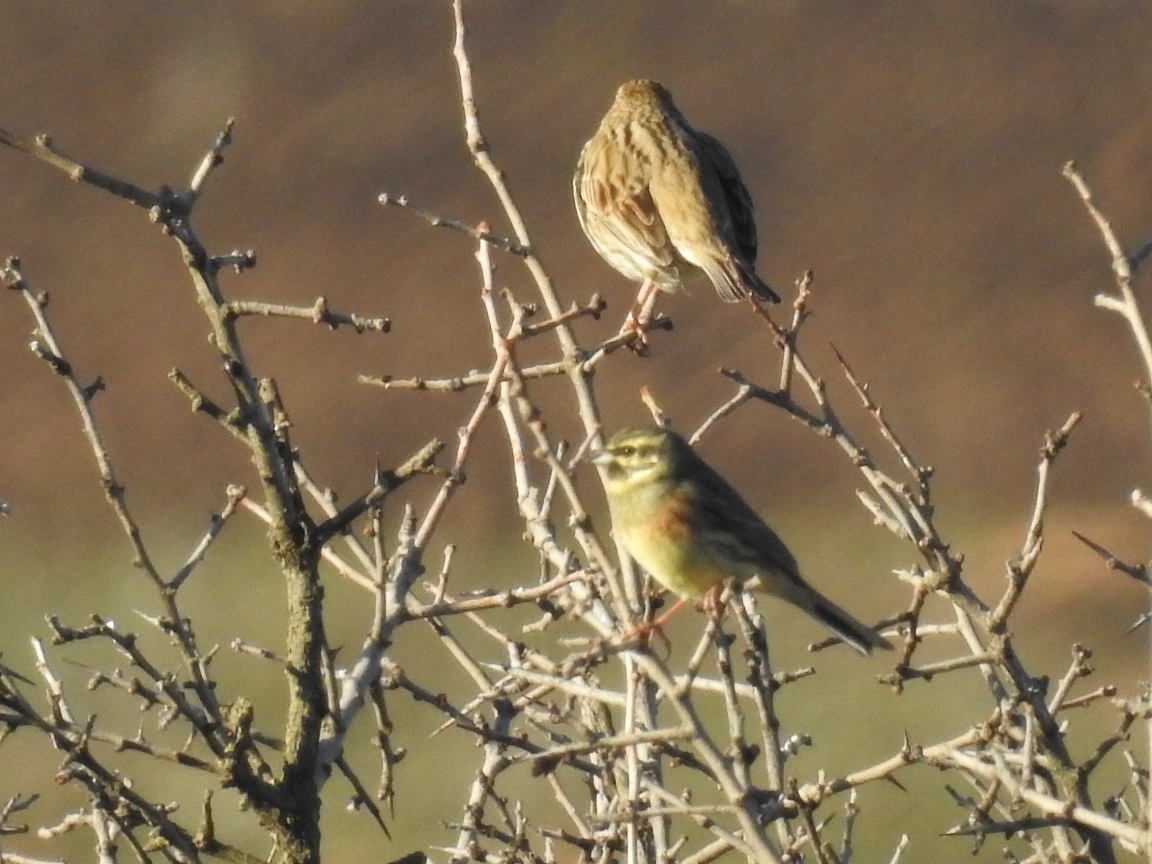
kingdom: Animalia
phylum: Chordata
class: Aves
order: Passeriformes
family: Emberizidae
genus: Emberiza
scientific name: Emberiza cirlus
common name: Cirl bunting
